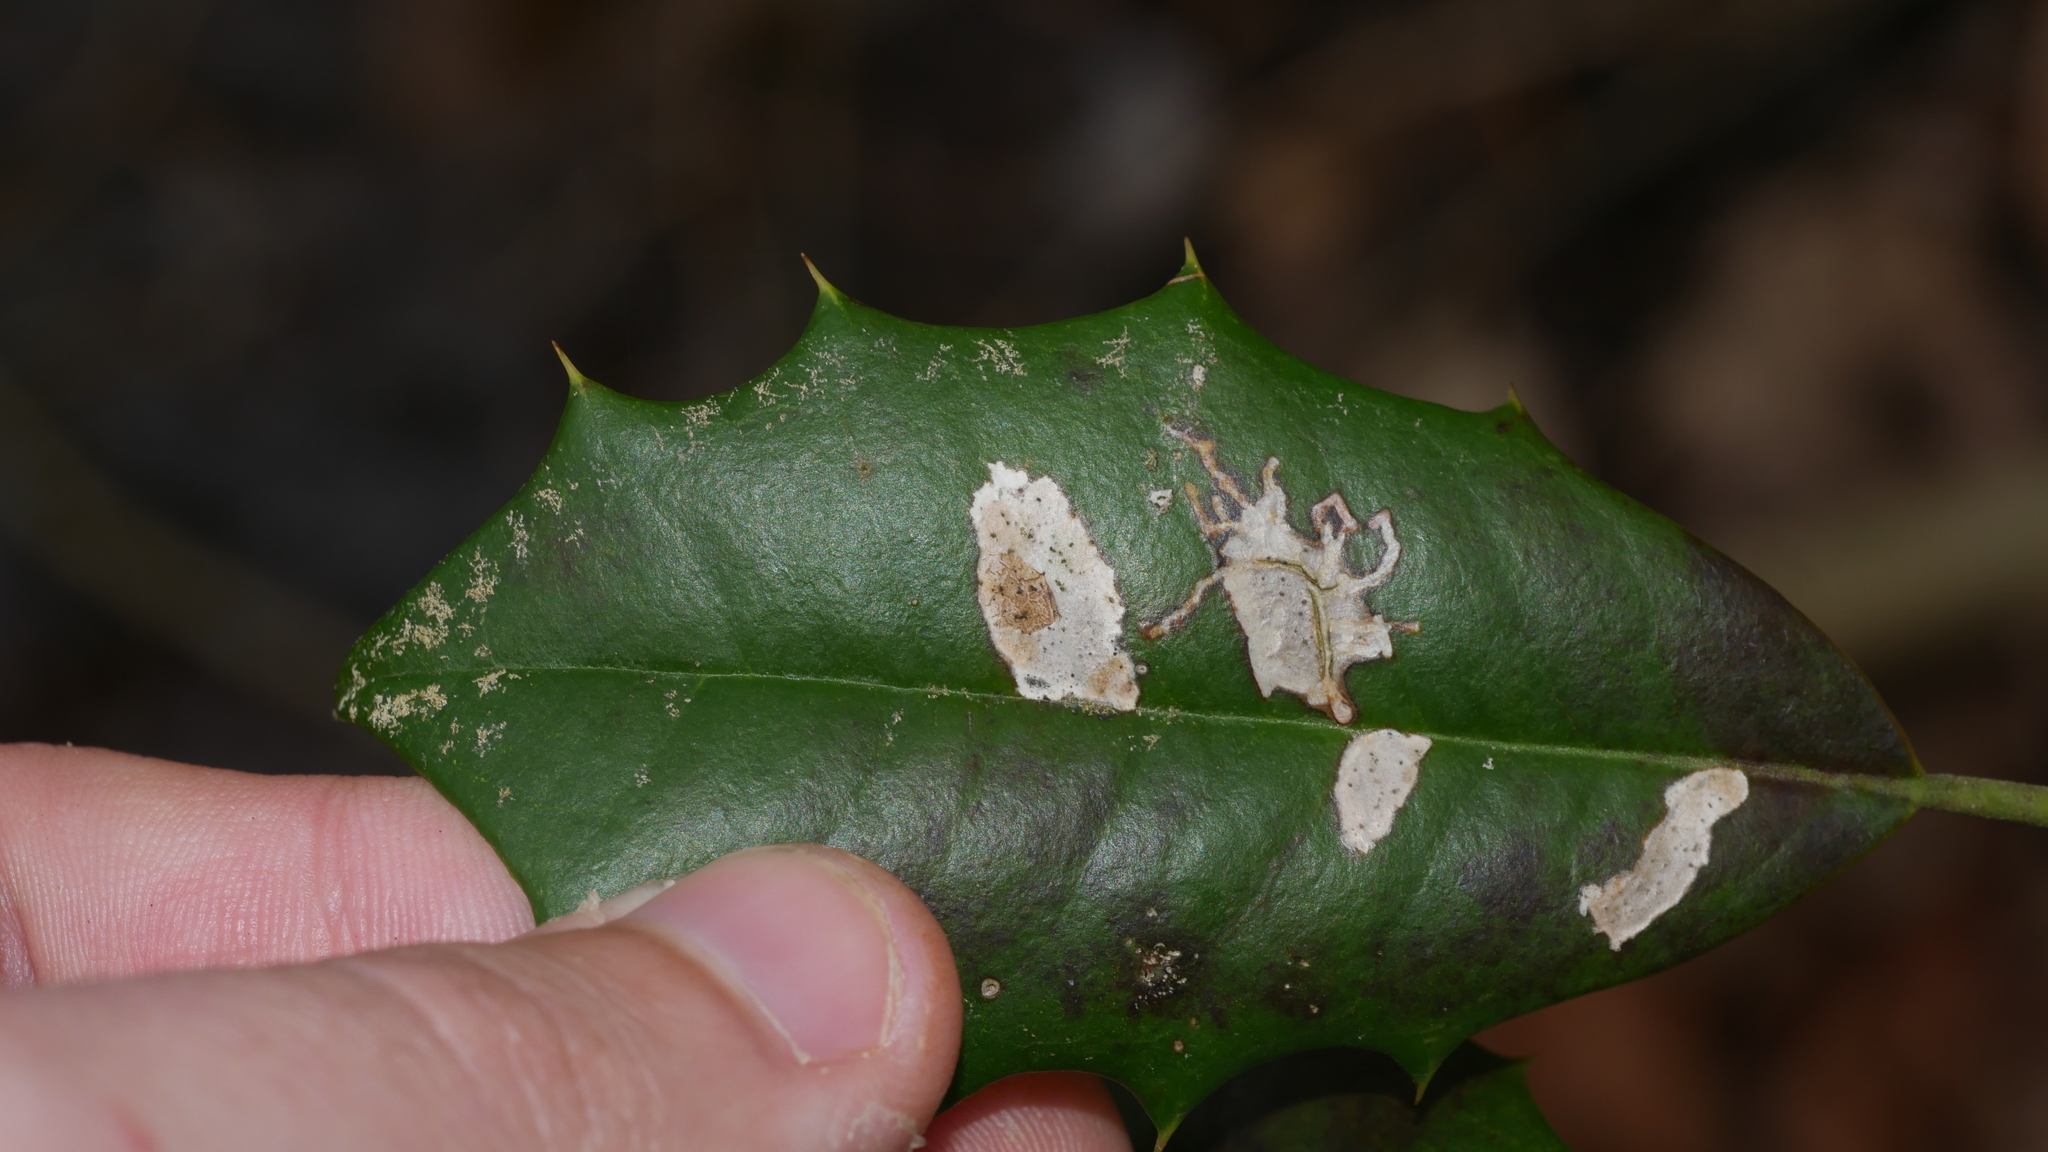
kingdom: Animalia
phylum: Arthropoda
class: Insecta
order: Lepidoptera
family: Tortricidae
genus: Rhopobota
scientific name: Rhopobota
